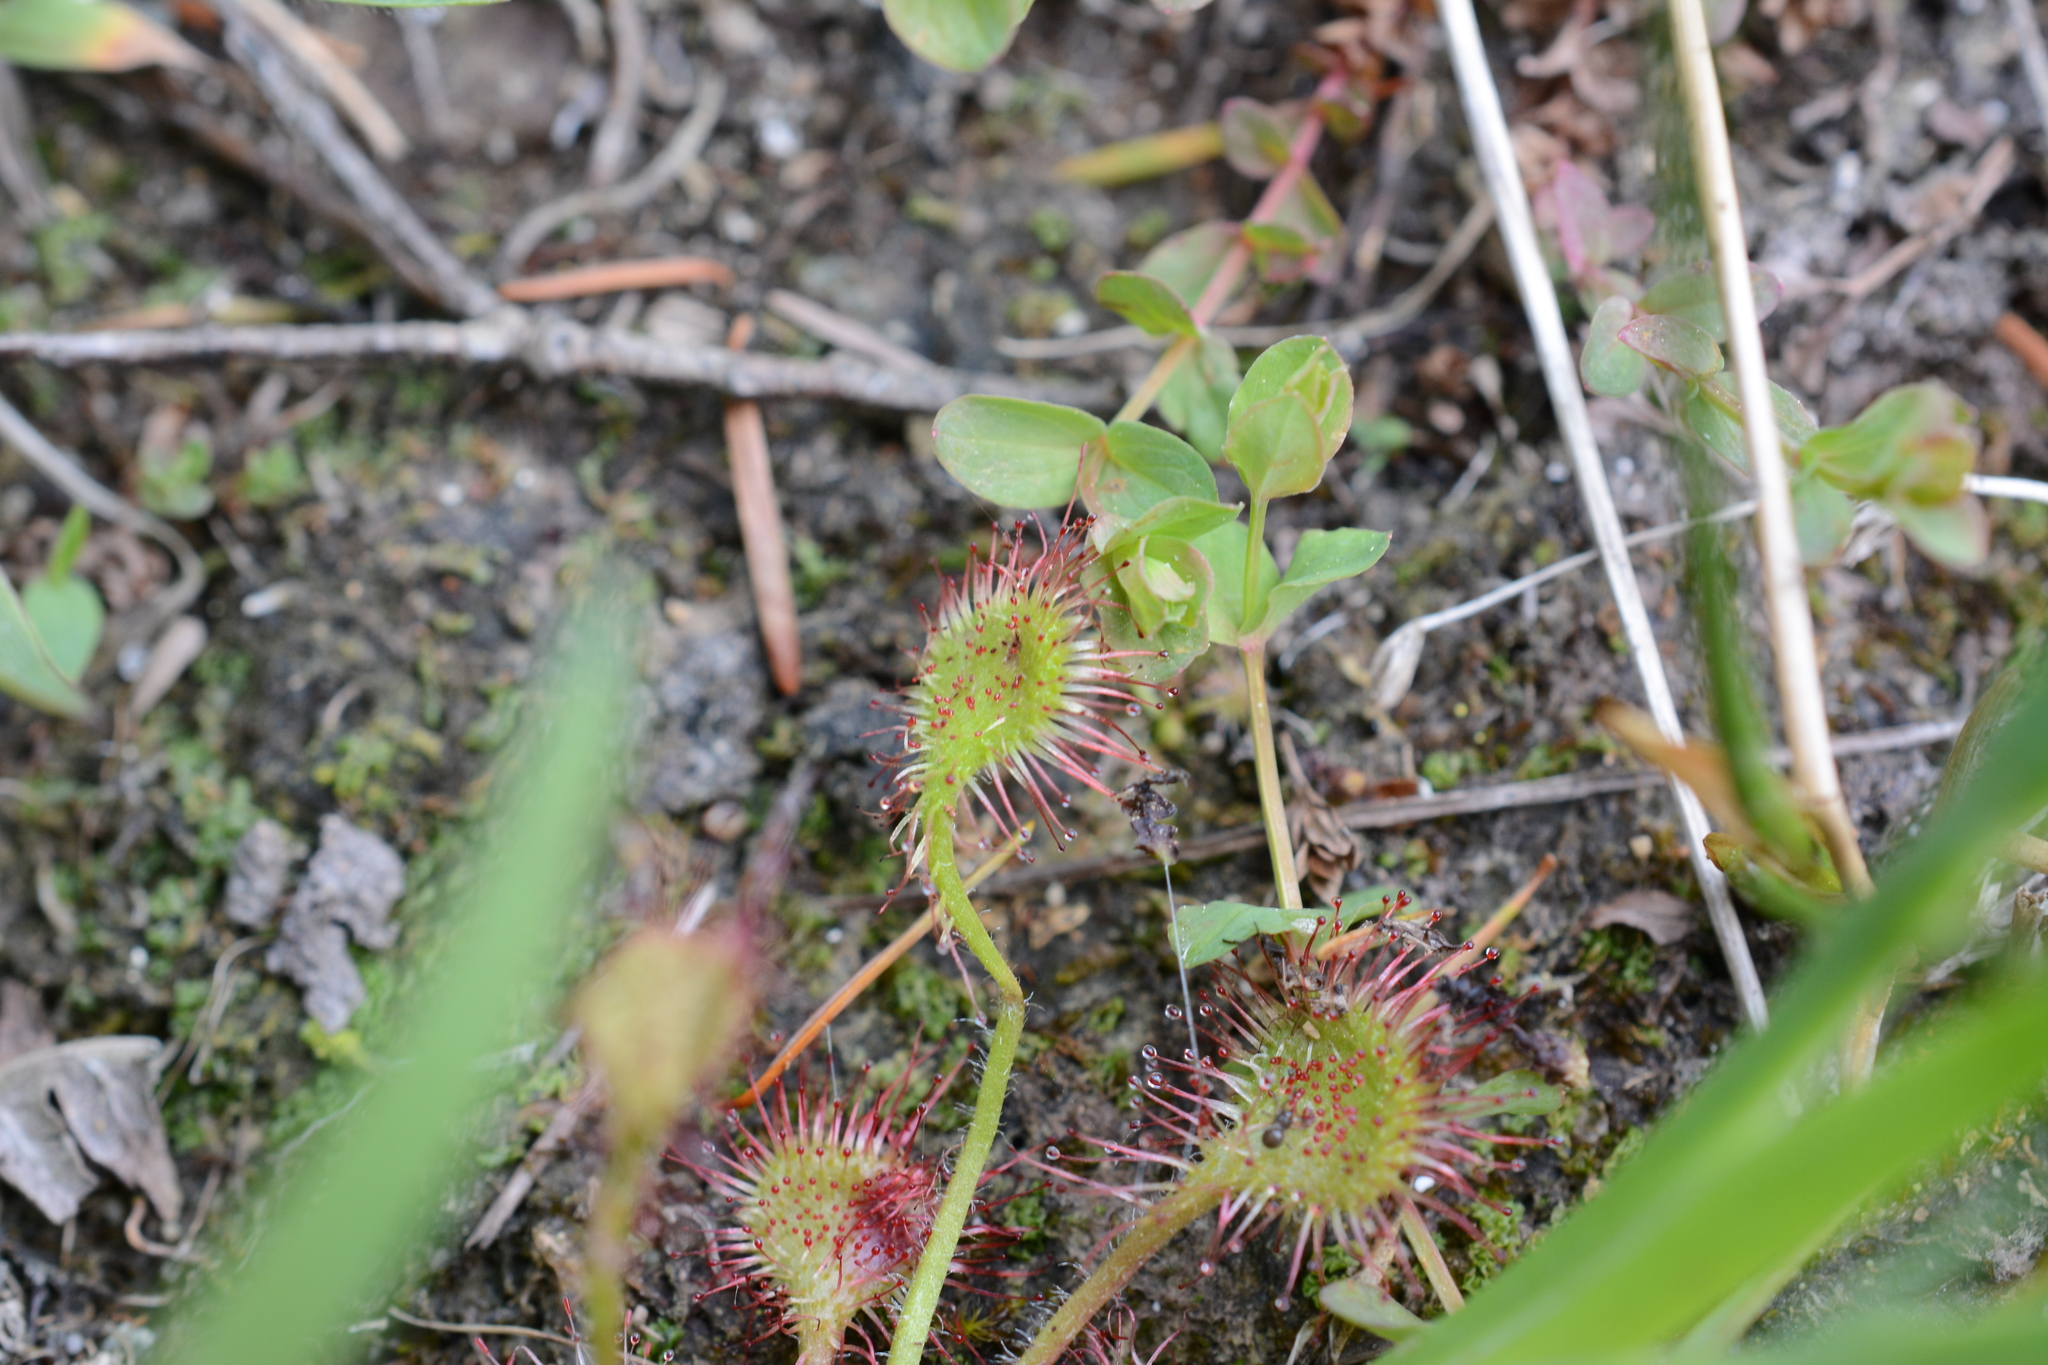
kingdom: Plantae
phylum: Tracheophyta
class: Magnoliopsida
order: Caryophyllales
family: Droseraceae
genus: Drosera
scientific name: Drosera rotundifolia
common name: Round-leaved sundew
